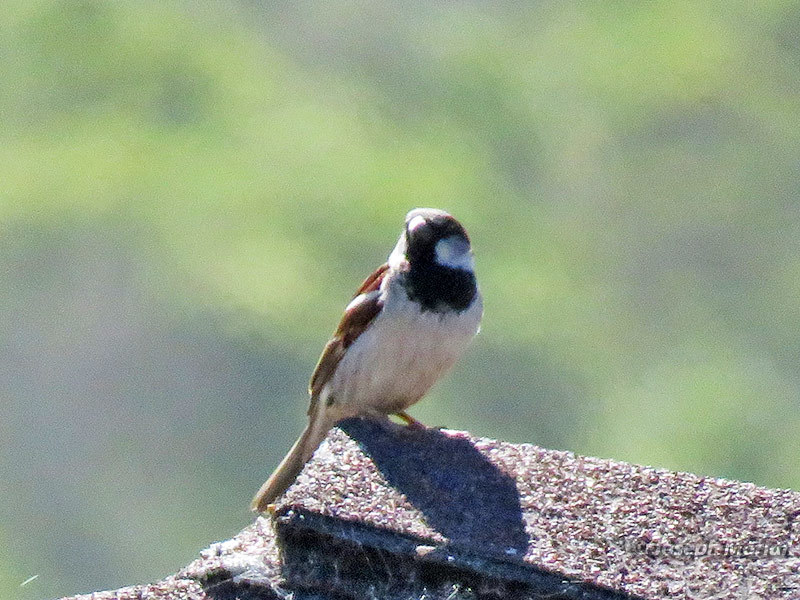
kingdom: Animalia
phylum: Chordata
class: Aves
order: Passeriformes
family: Passeridae
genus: Passer
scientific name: Passer domesticus
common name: House sparrow
